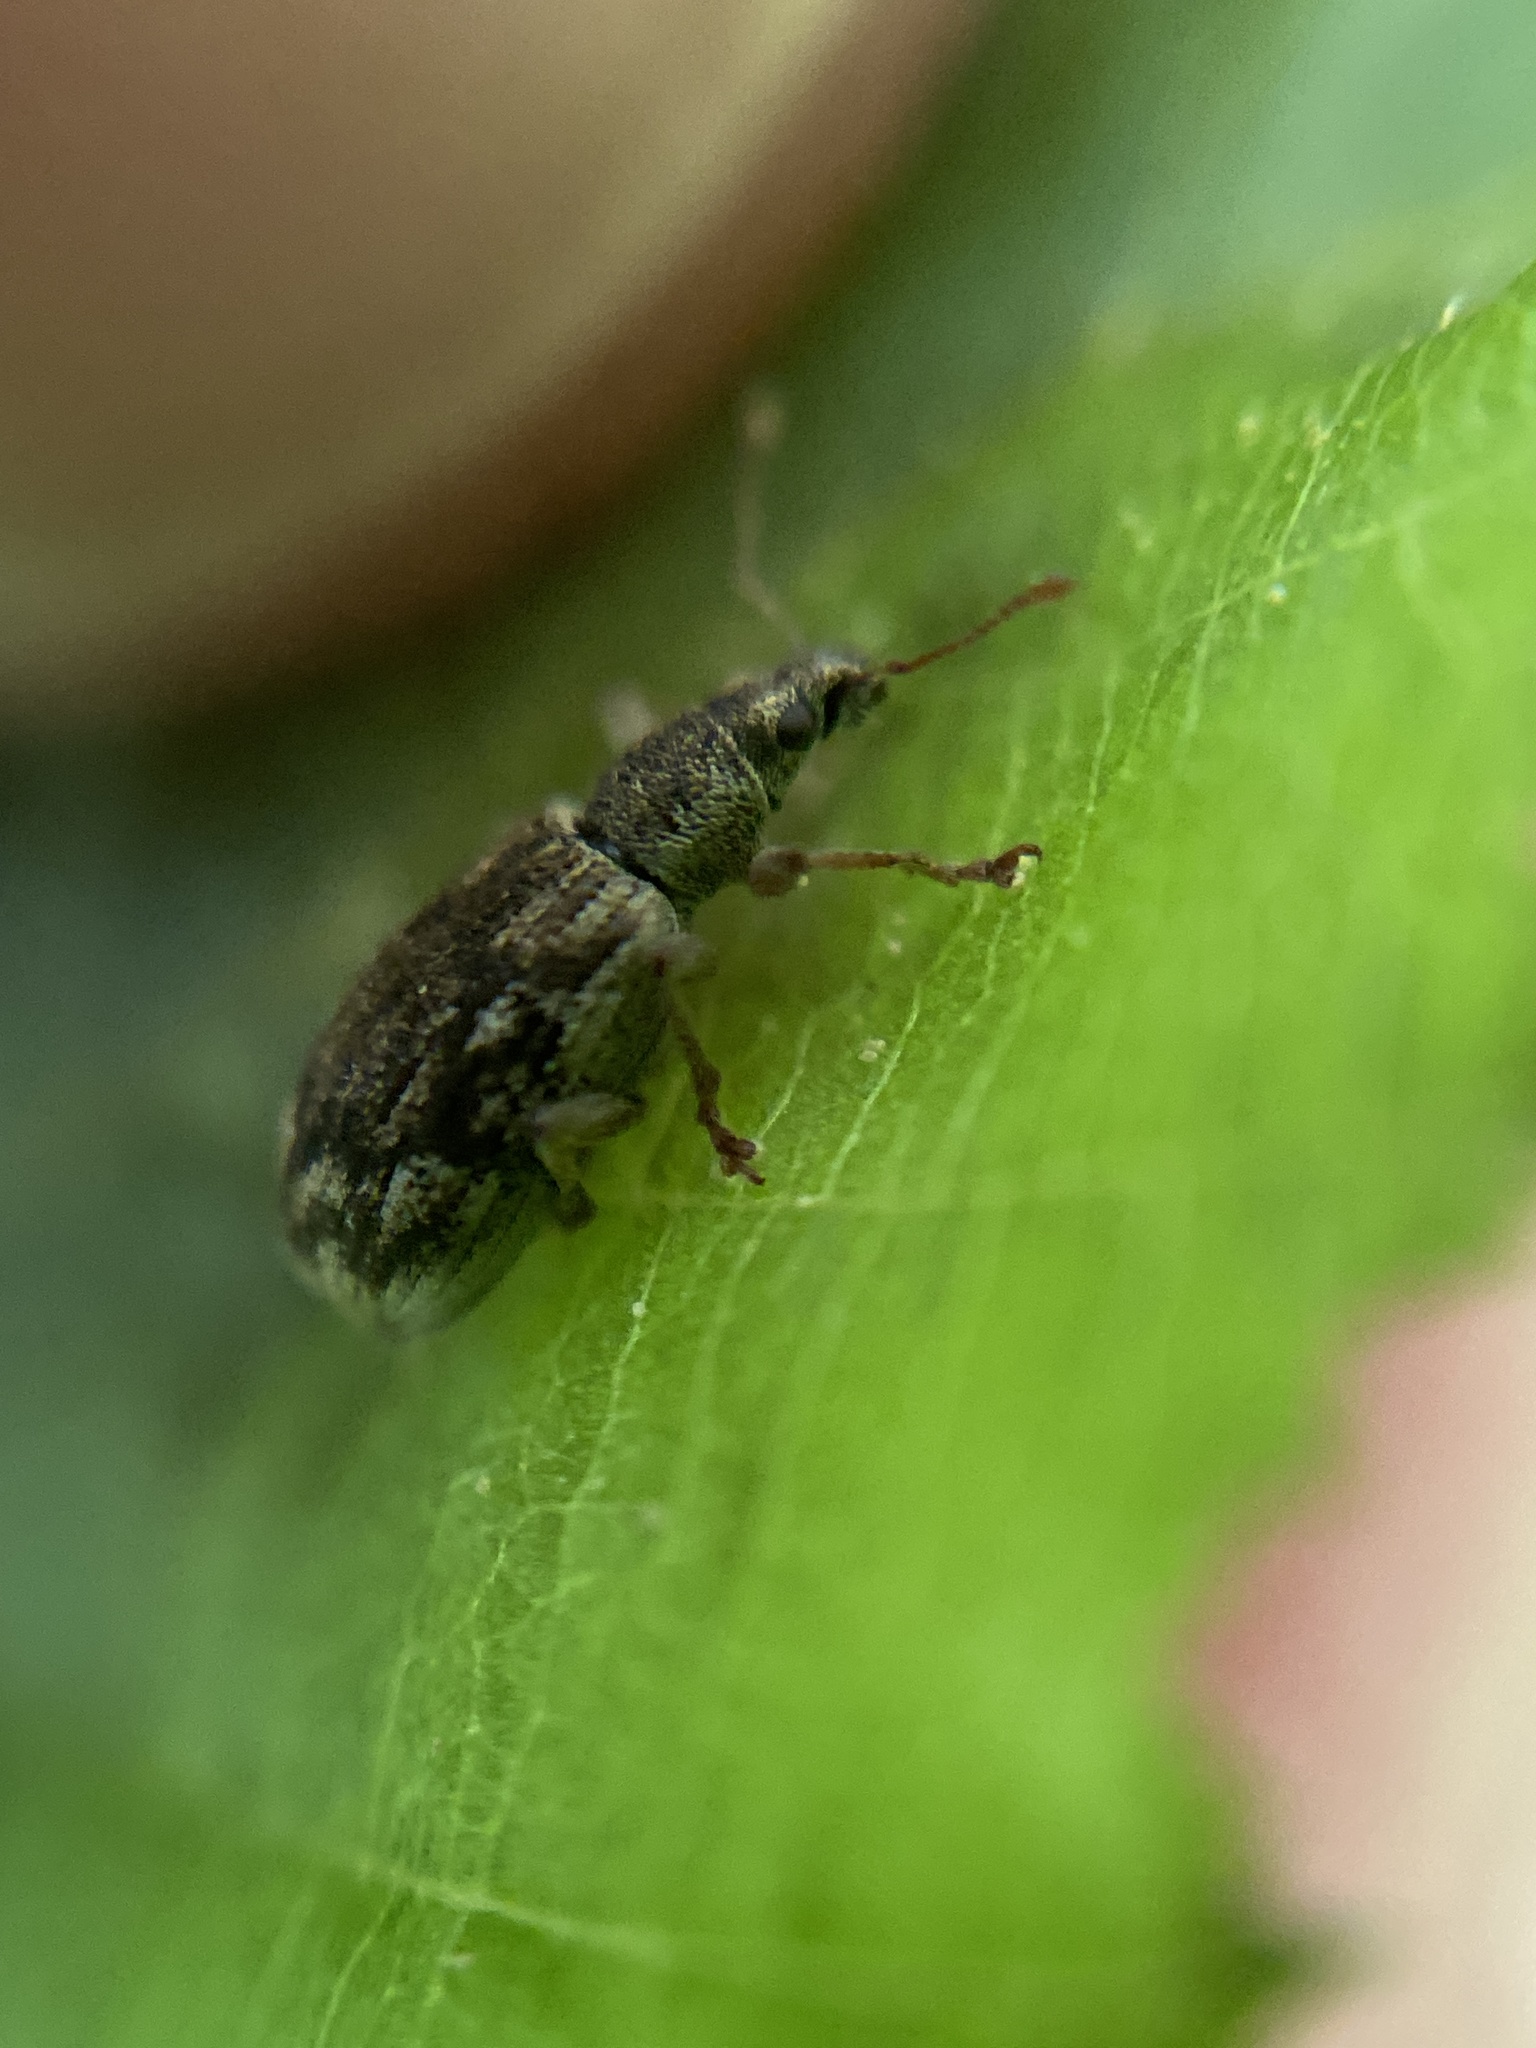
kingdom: Animalia
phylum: Arthropoda
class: Insecta
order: Coleoptera
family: Curculionidae
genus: Polydrusus
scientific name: Polydrusus tereticollis
